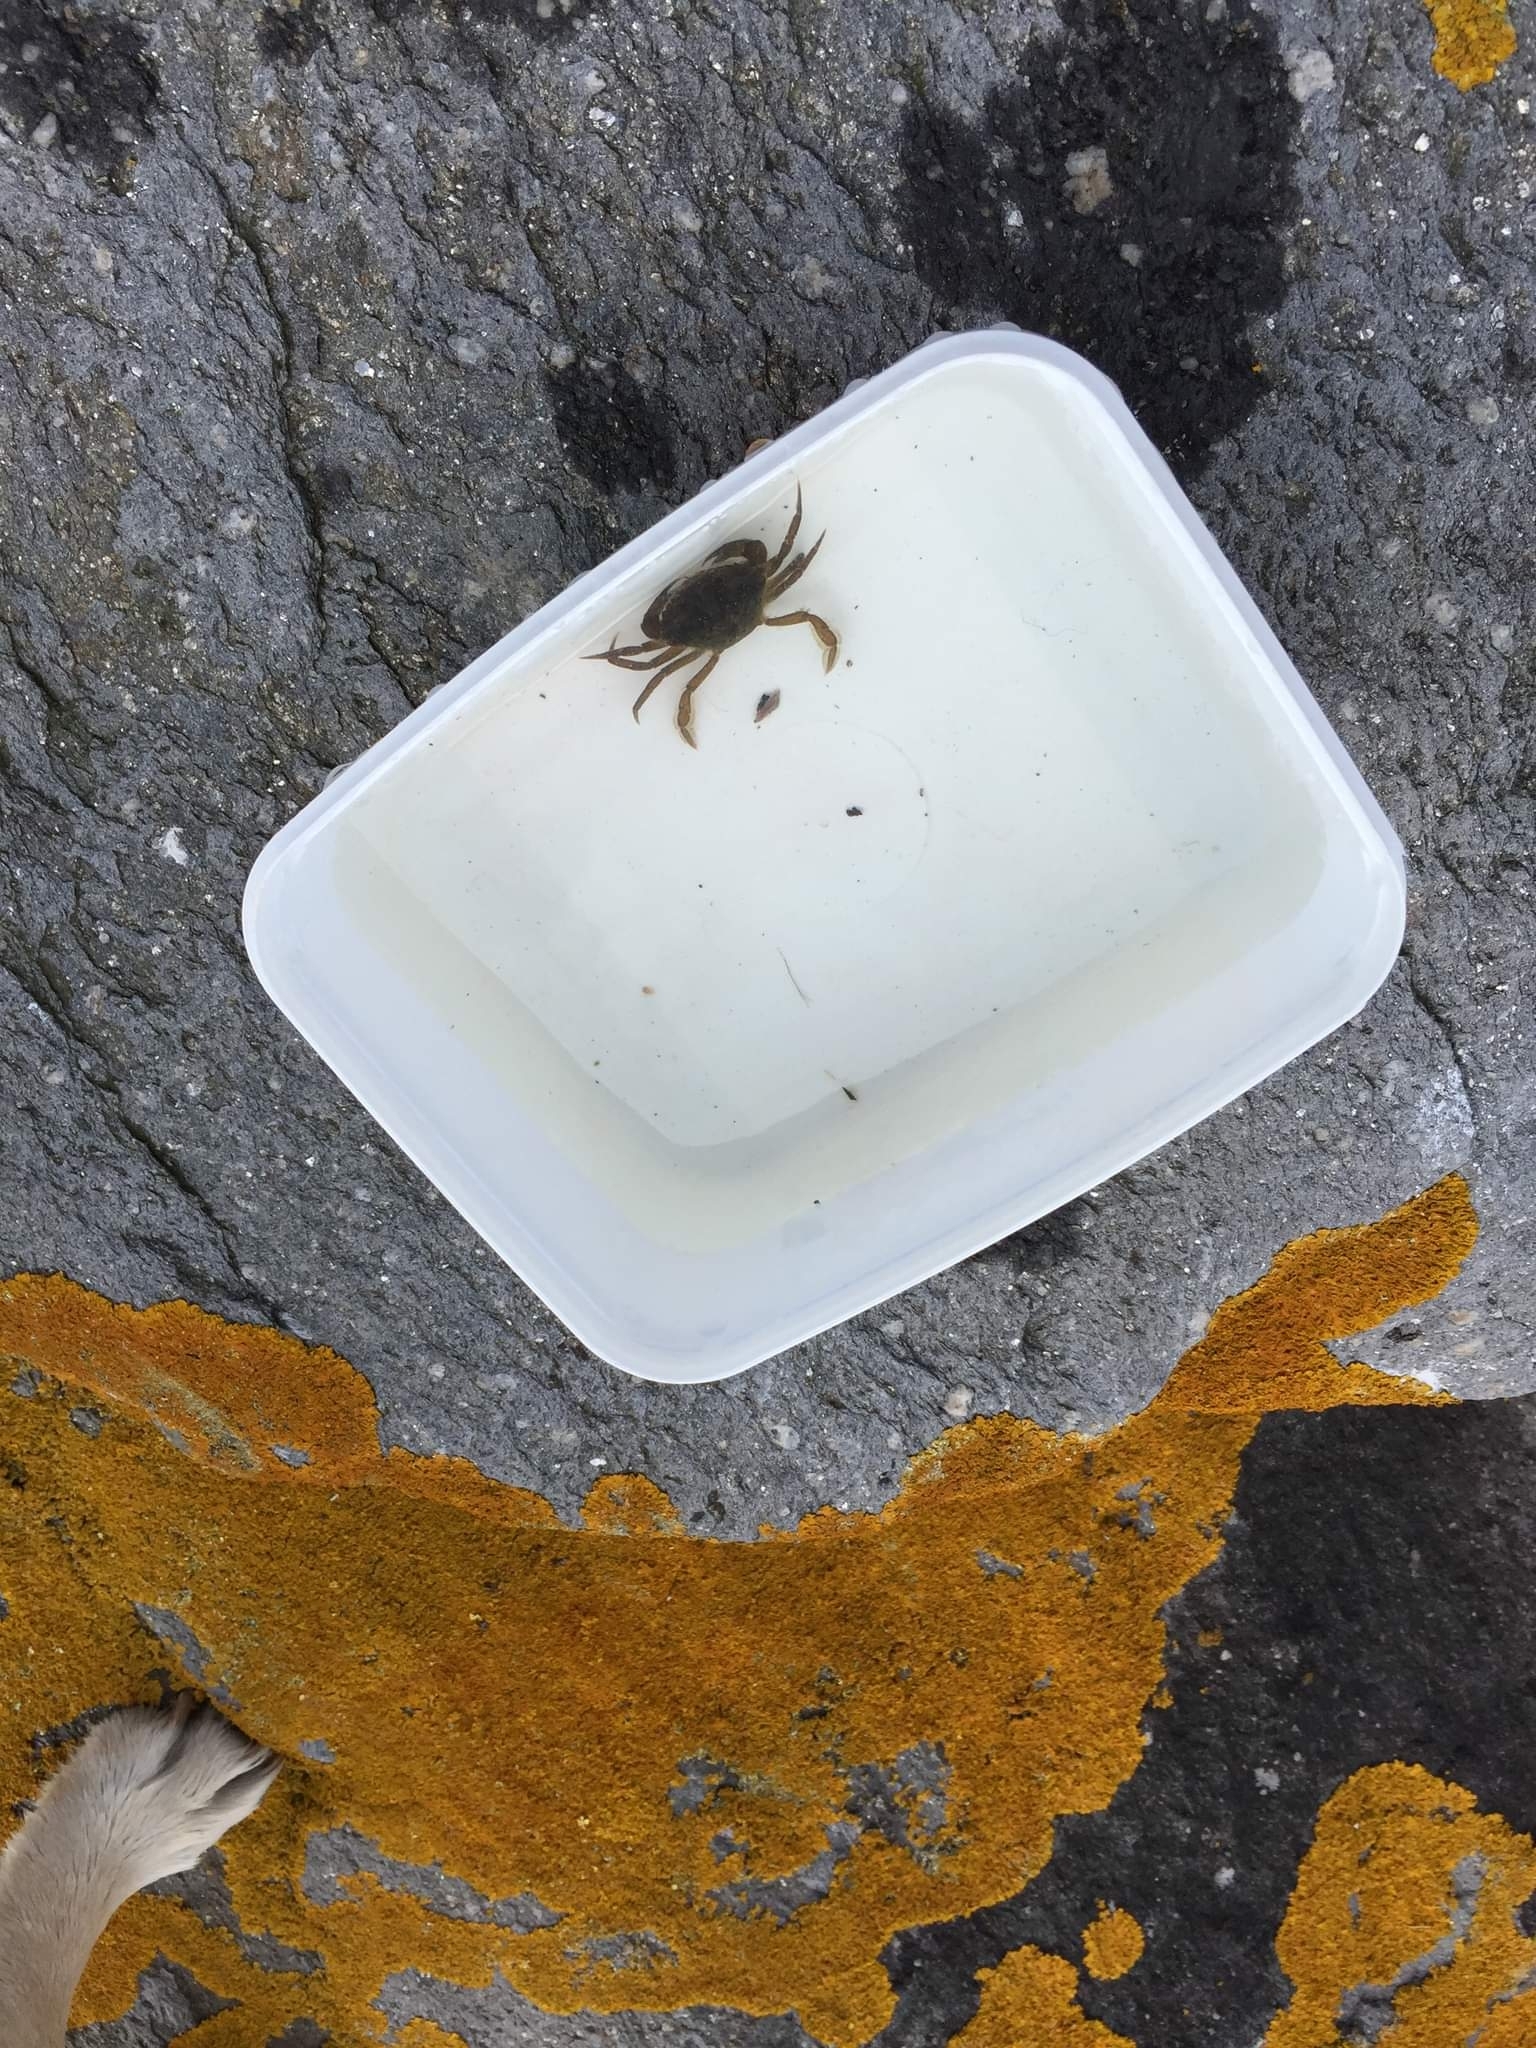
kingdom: Animalia
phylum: Arthropoda
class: Malacostraca
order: Decapoda
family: Carcinidae
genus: Carcinus
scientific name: Carcinus maenas
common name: European green crab
